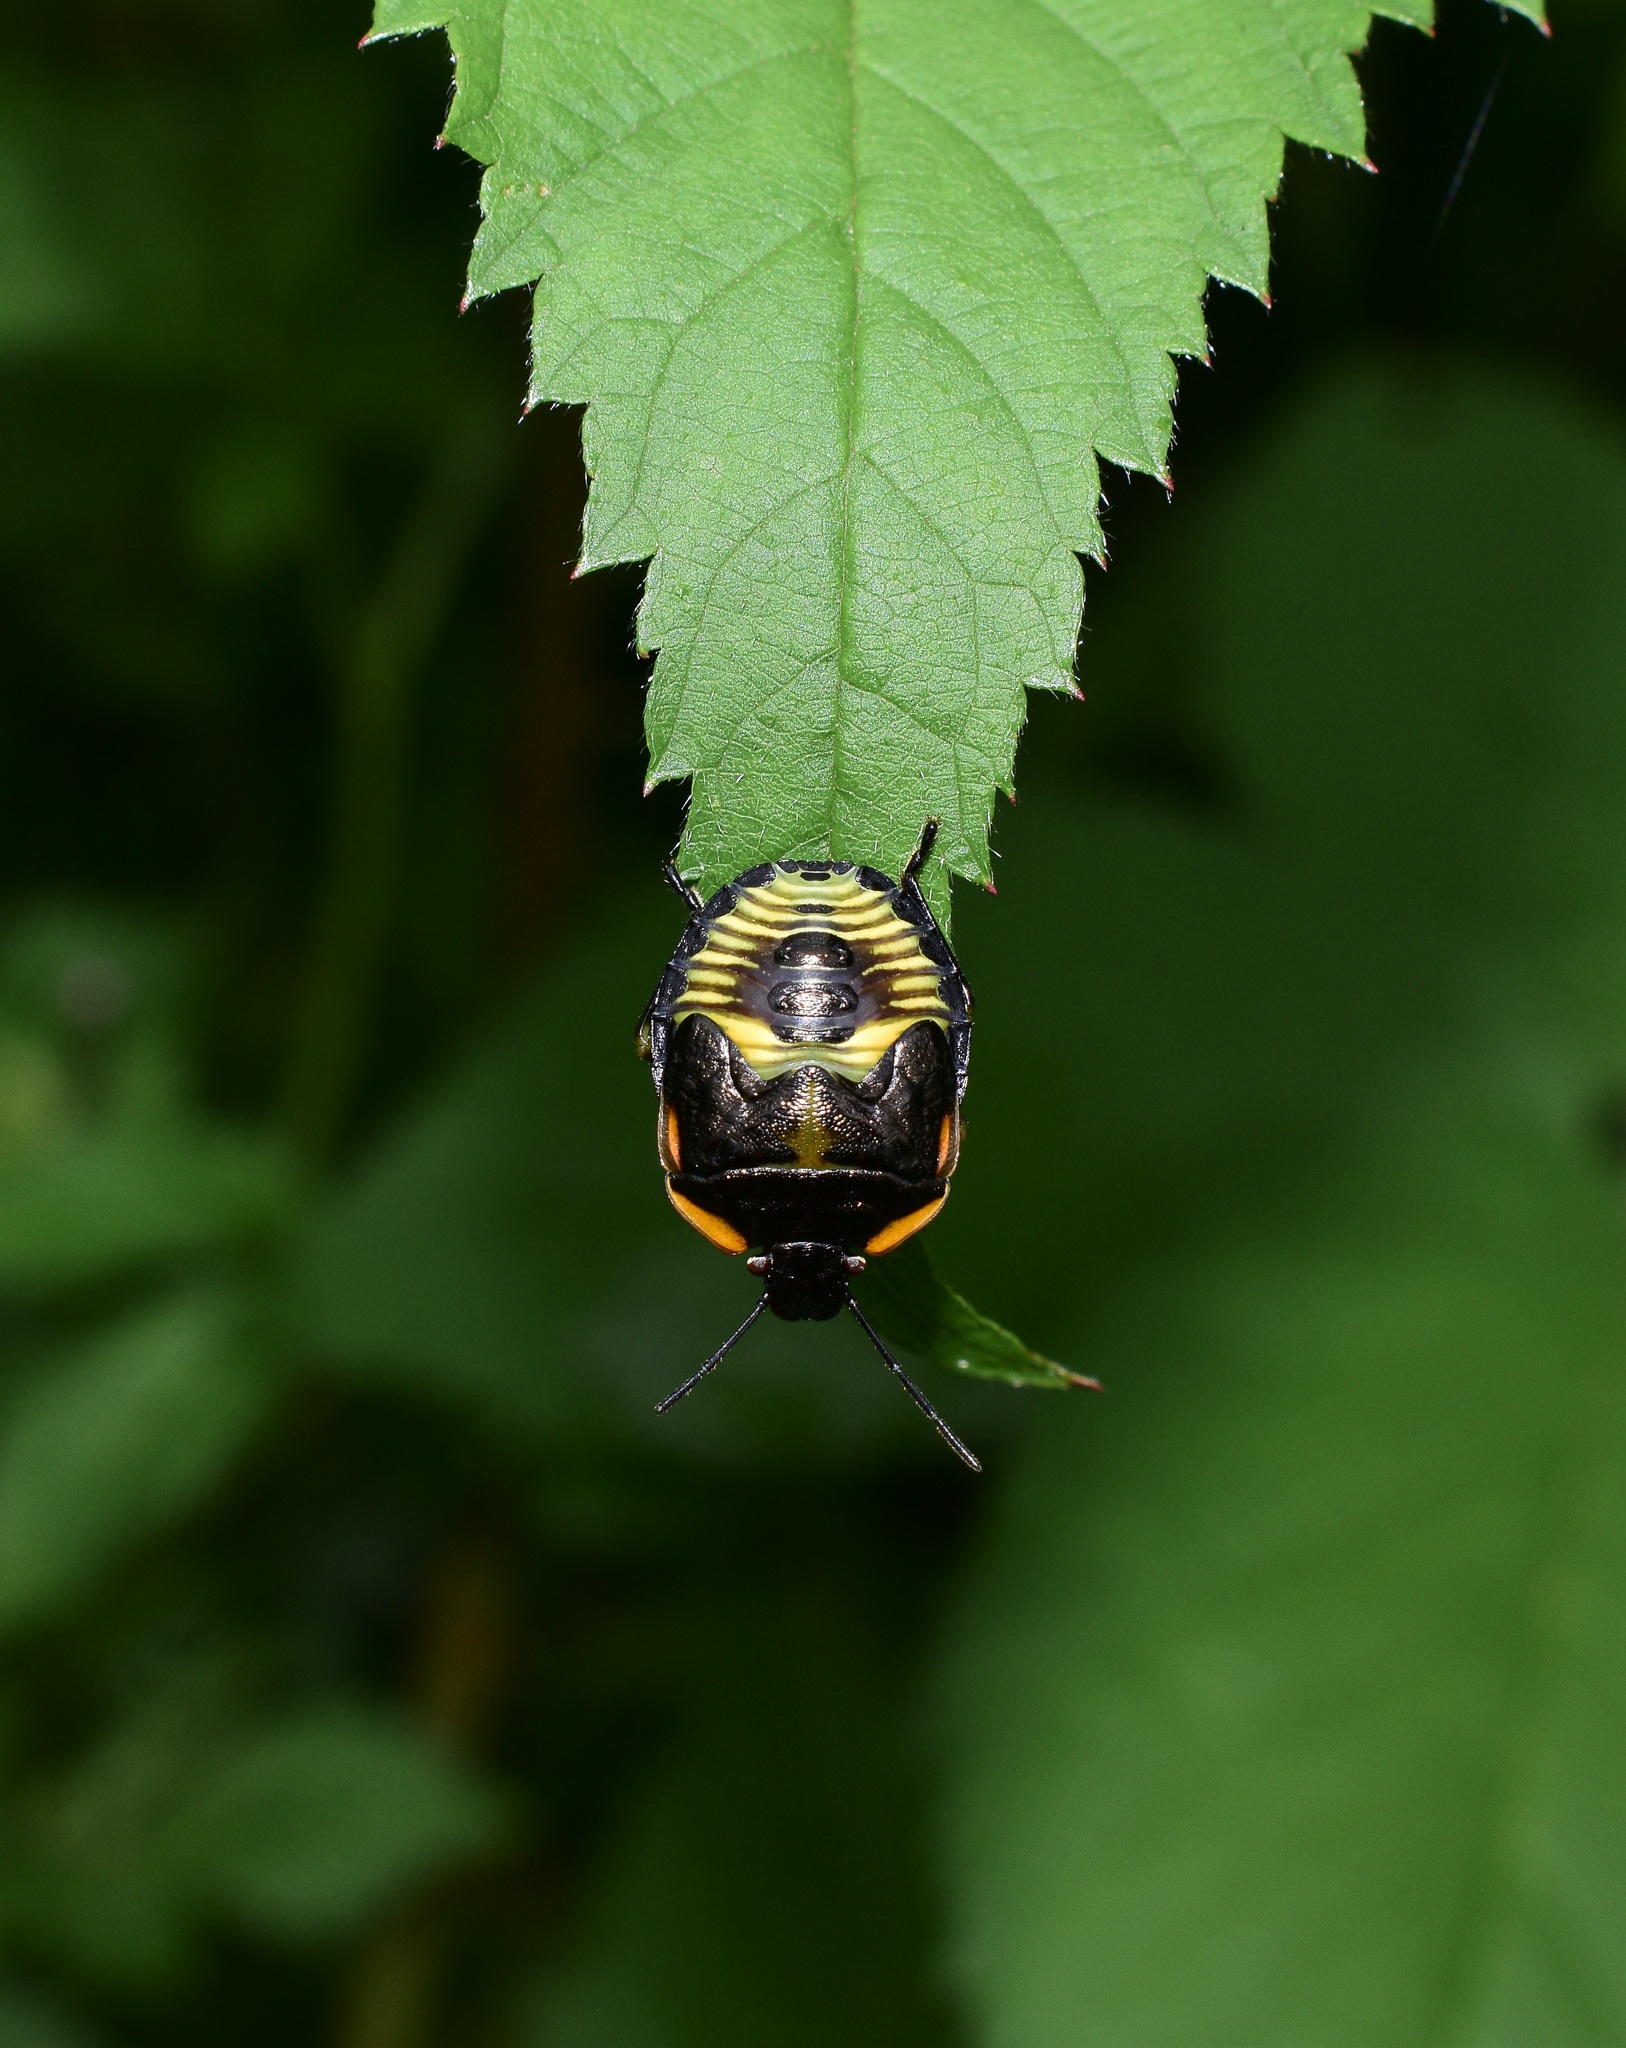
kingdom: Animalia
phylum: Arthropoda
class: Insecta
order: Hemiptera
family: Pentatomidae
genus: Chinavia
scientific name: Chinavia hilaris
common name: Green stink bug
